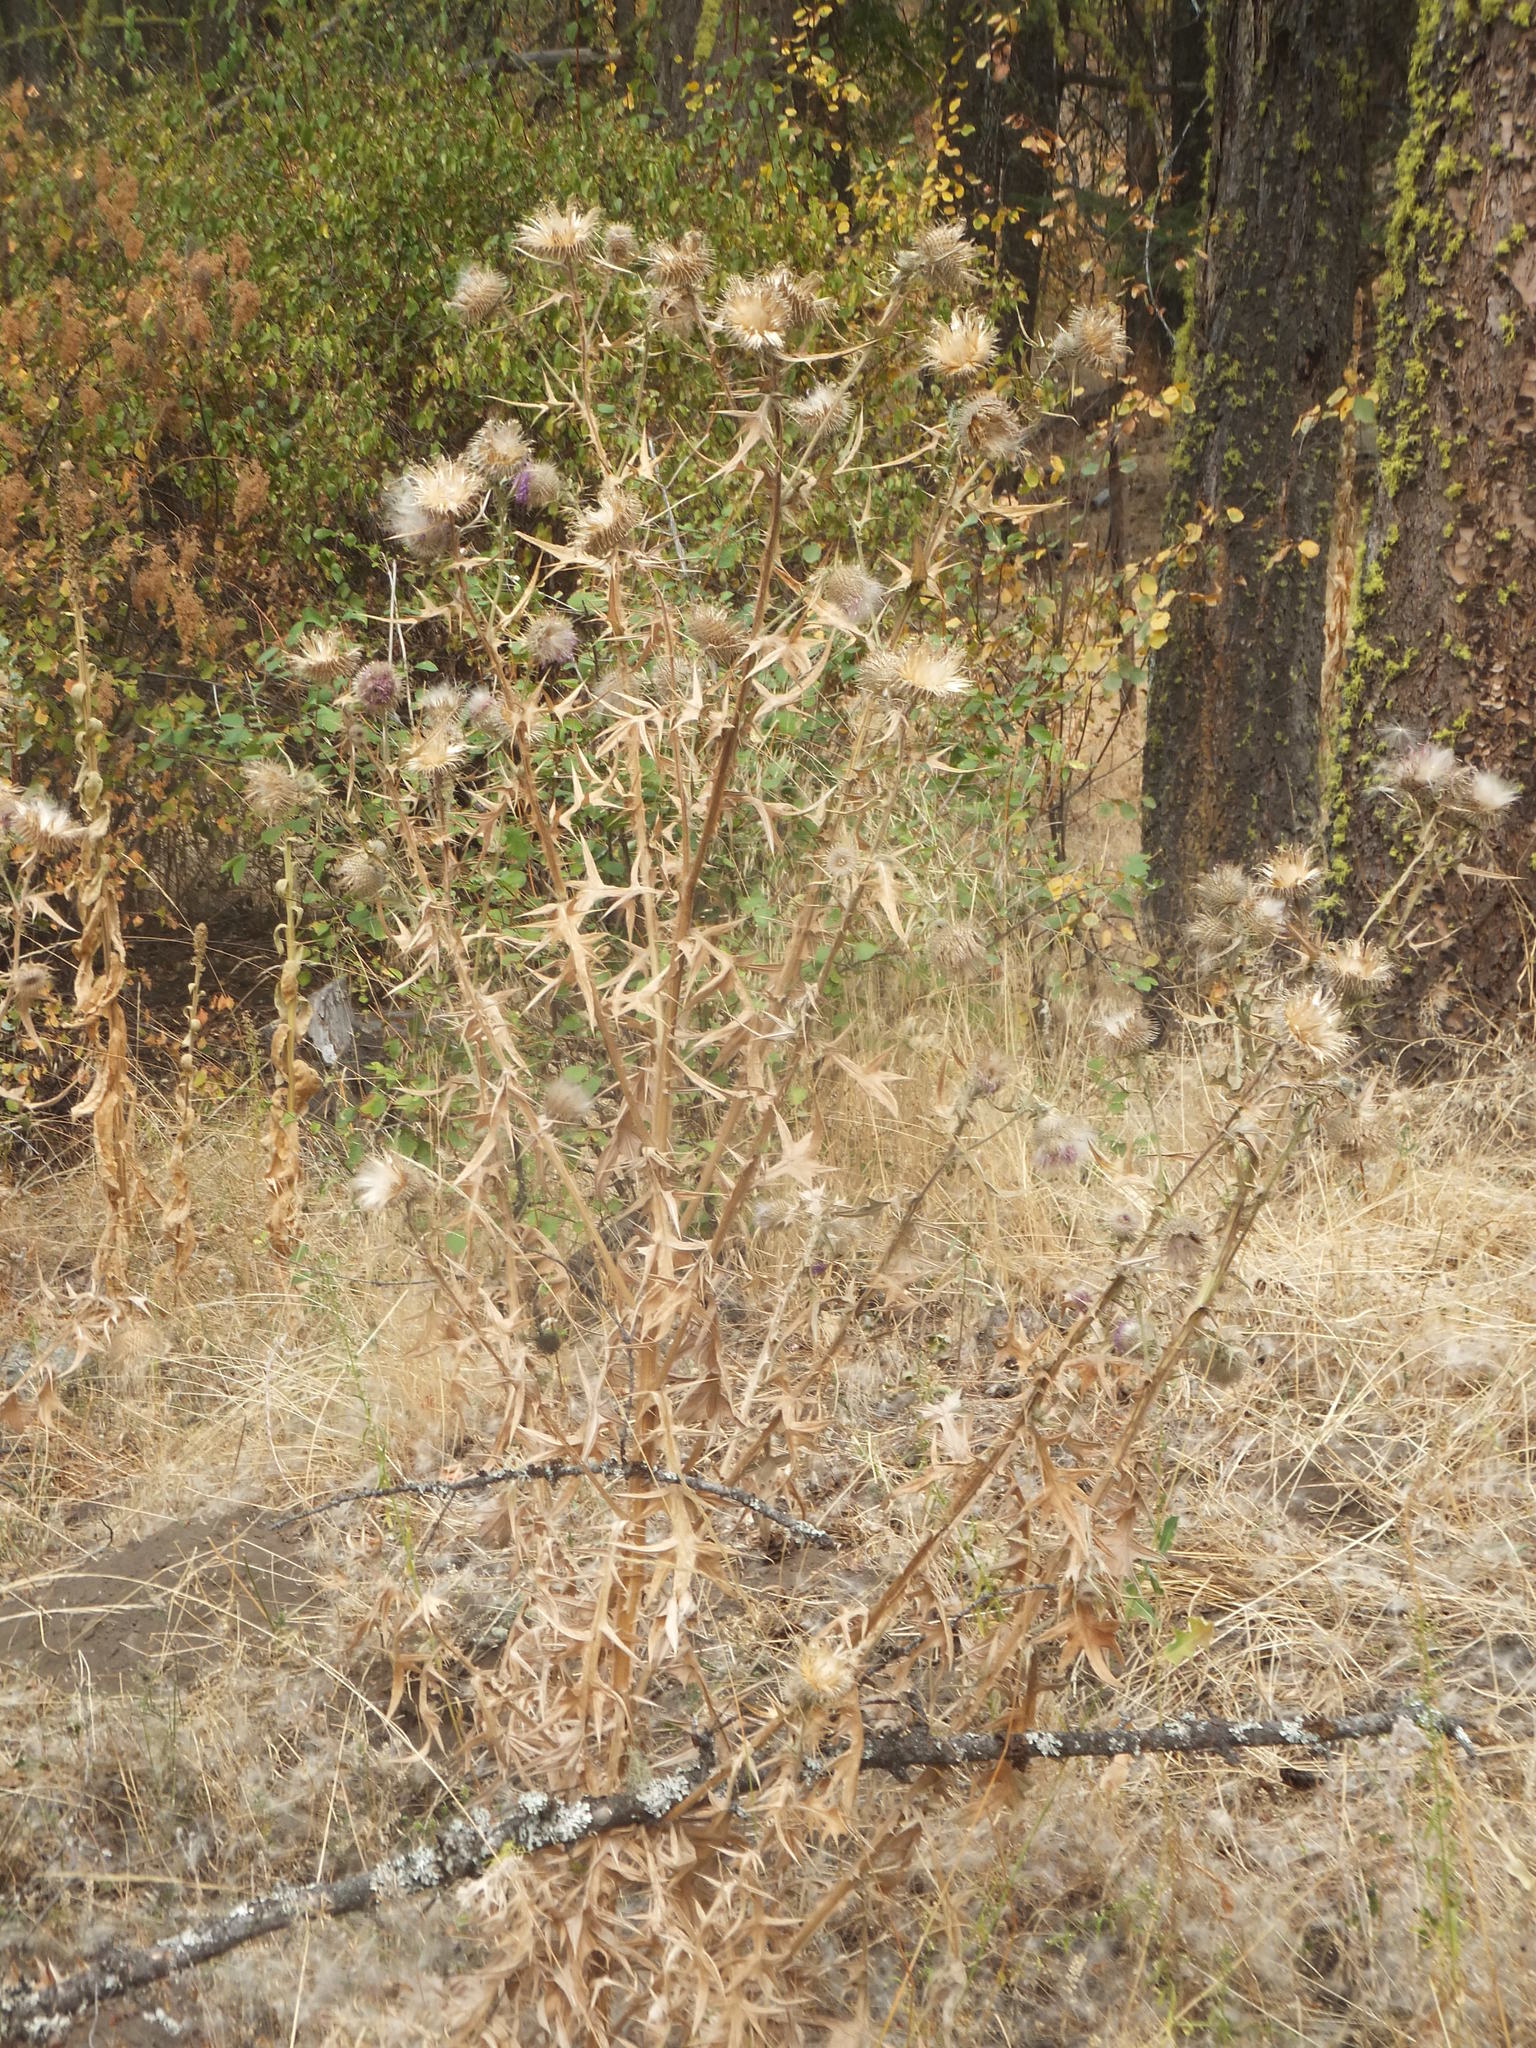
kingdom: Plantae
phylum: Tracheophyta
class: Magnoliopsida
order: Asterales
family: Asteraceae
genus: Cirsium
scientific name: Cirsium vulgare
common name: Bull thistle
